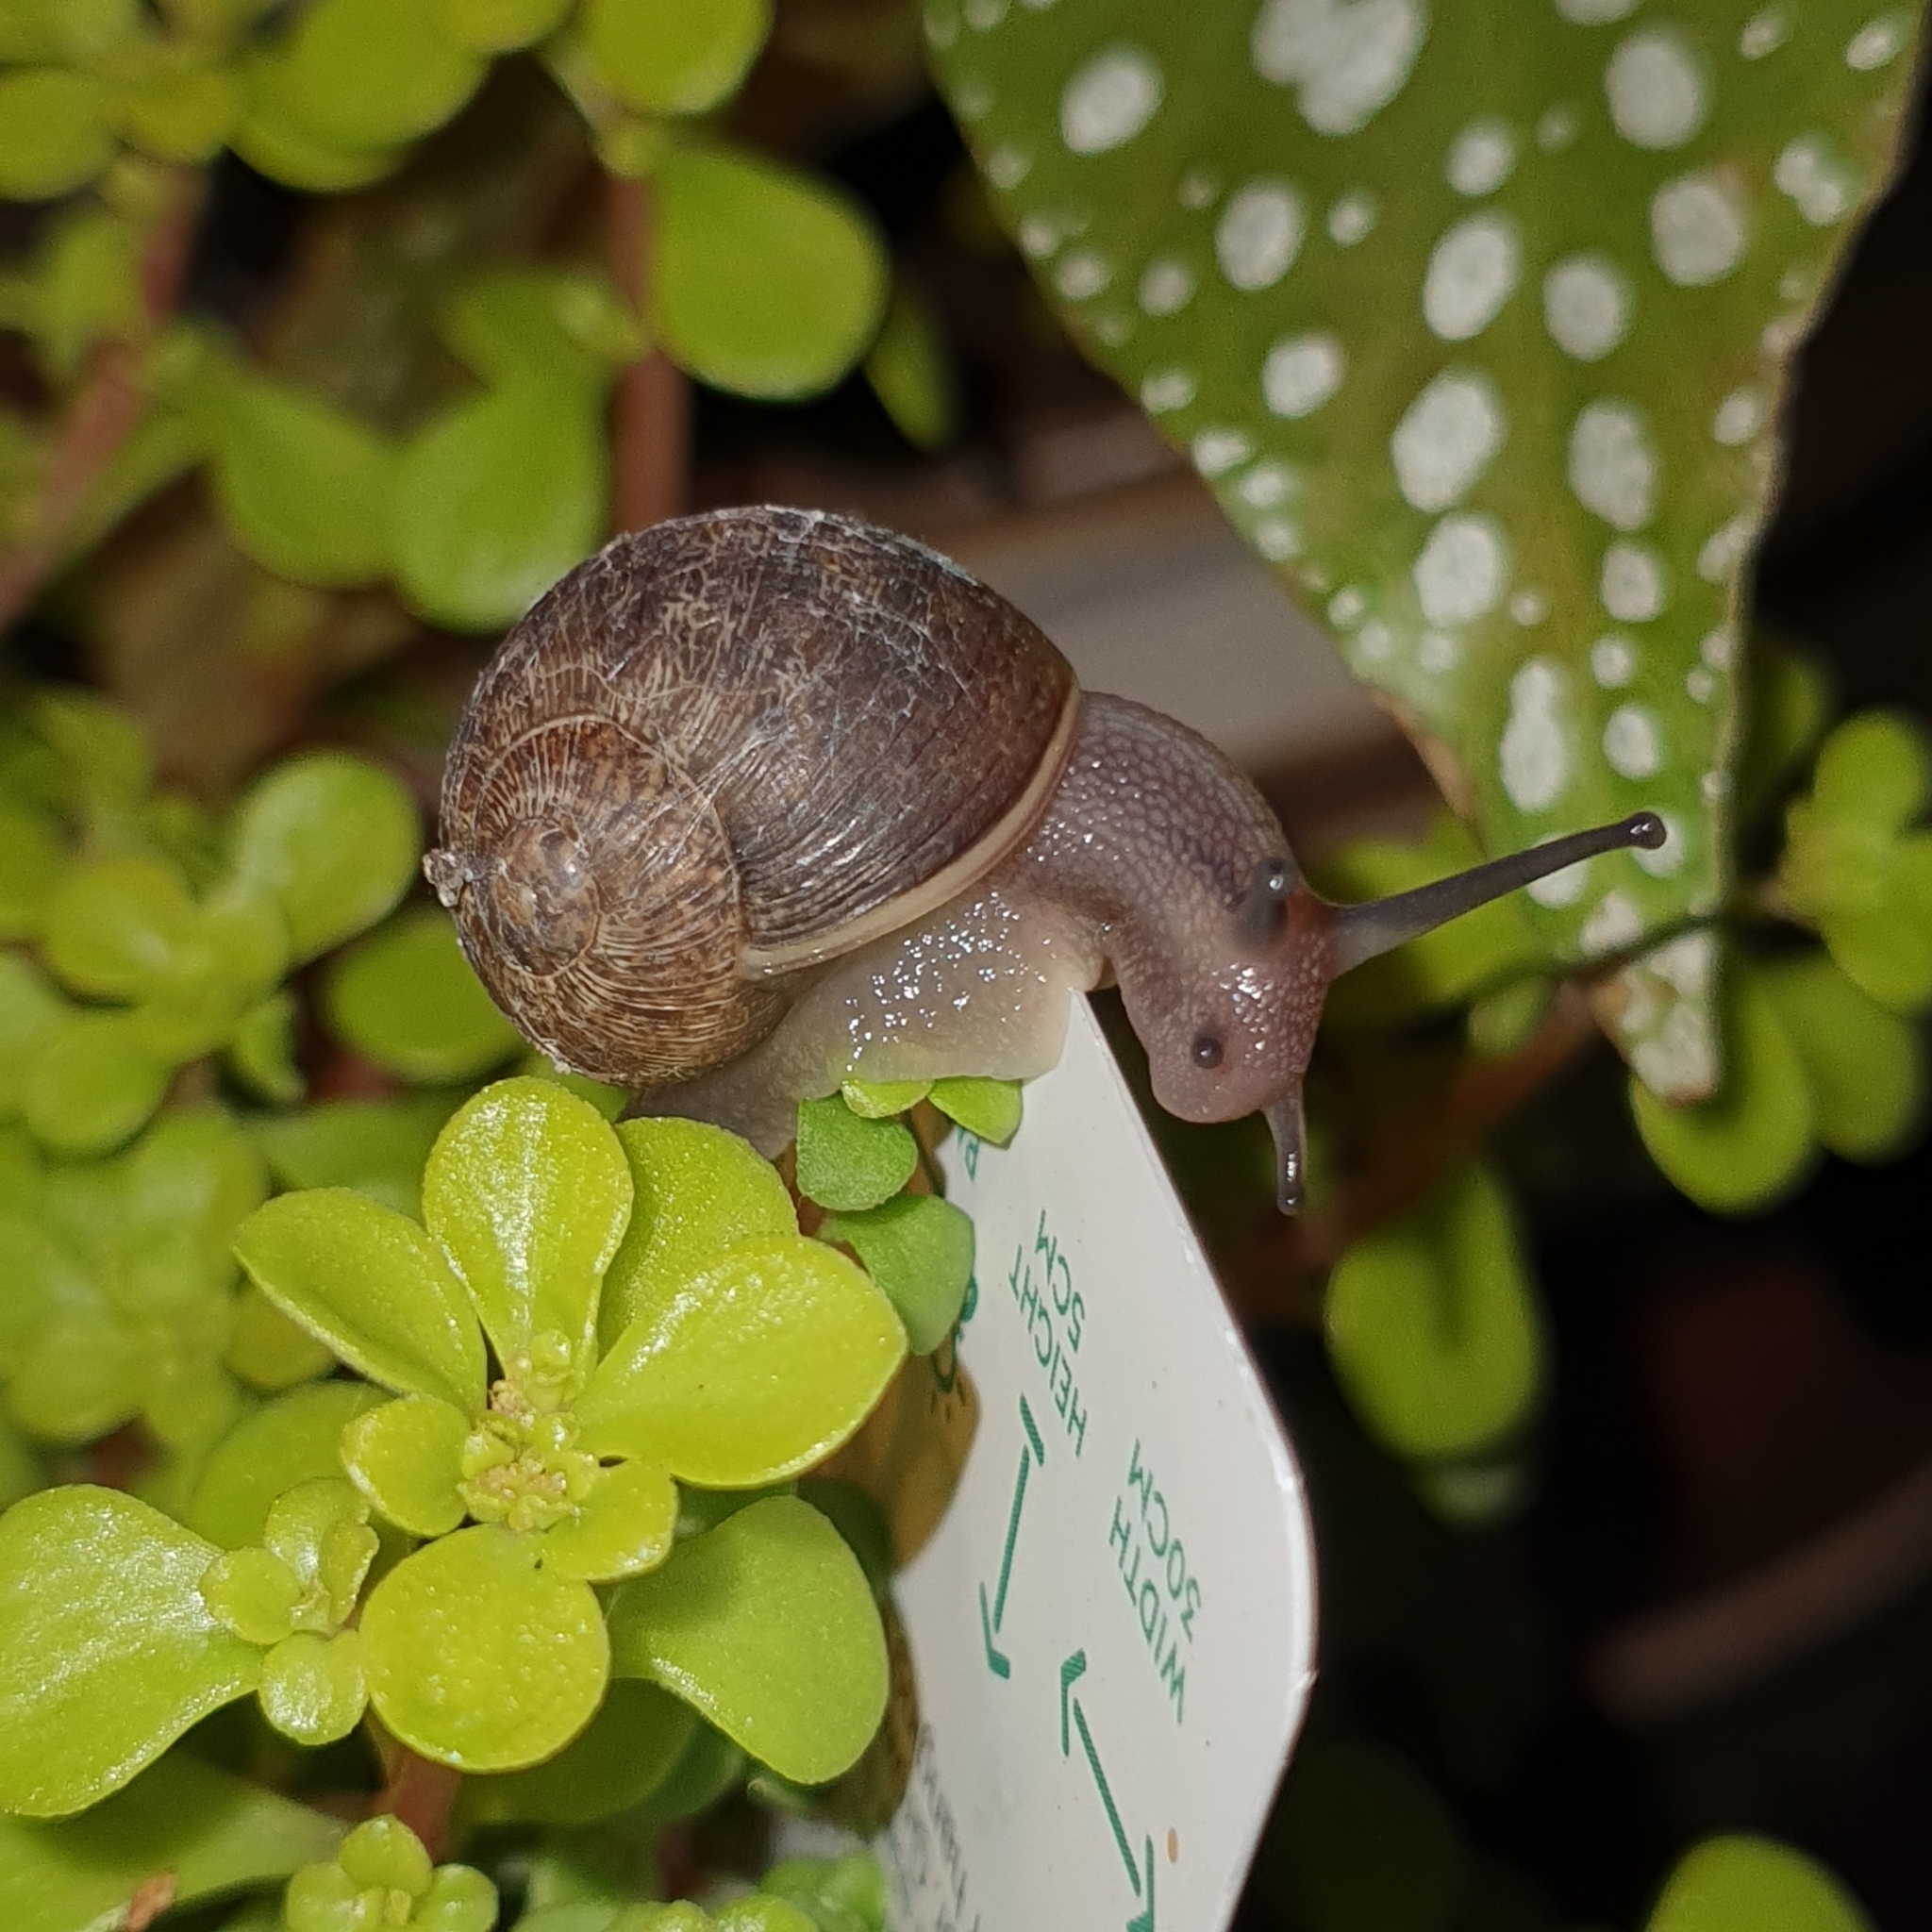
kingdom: Animalia
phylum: Mollusca
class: Gastropoda
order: Stylommatophora
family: Helicidae
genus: Cornu
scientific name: Cornu aspersum
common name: Brown garden snail
